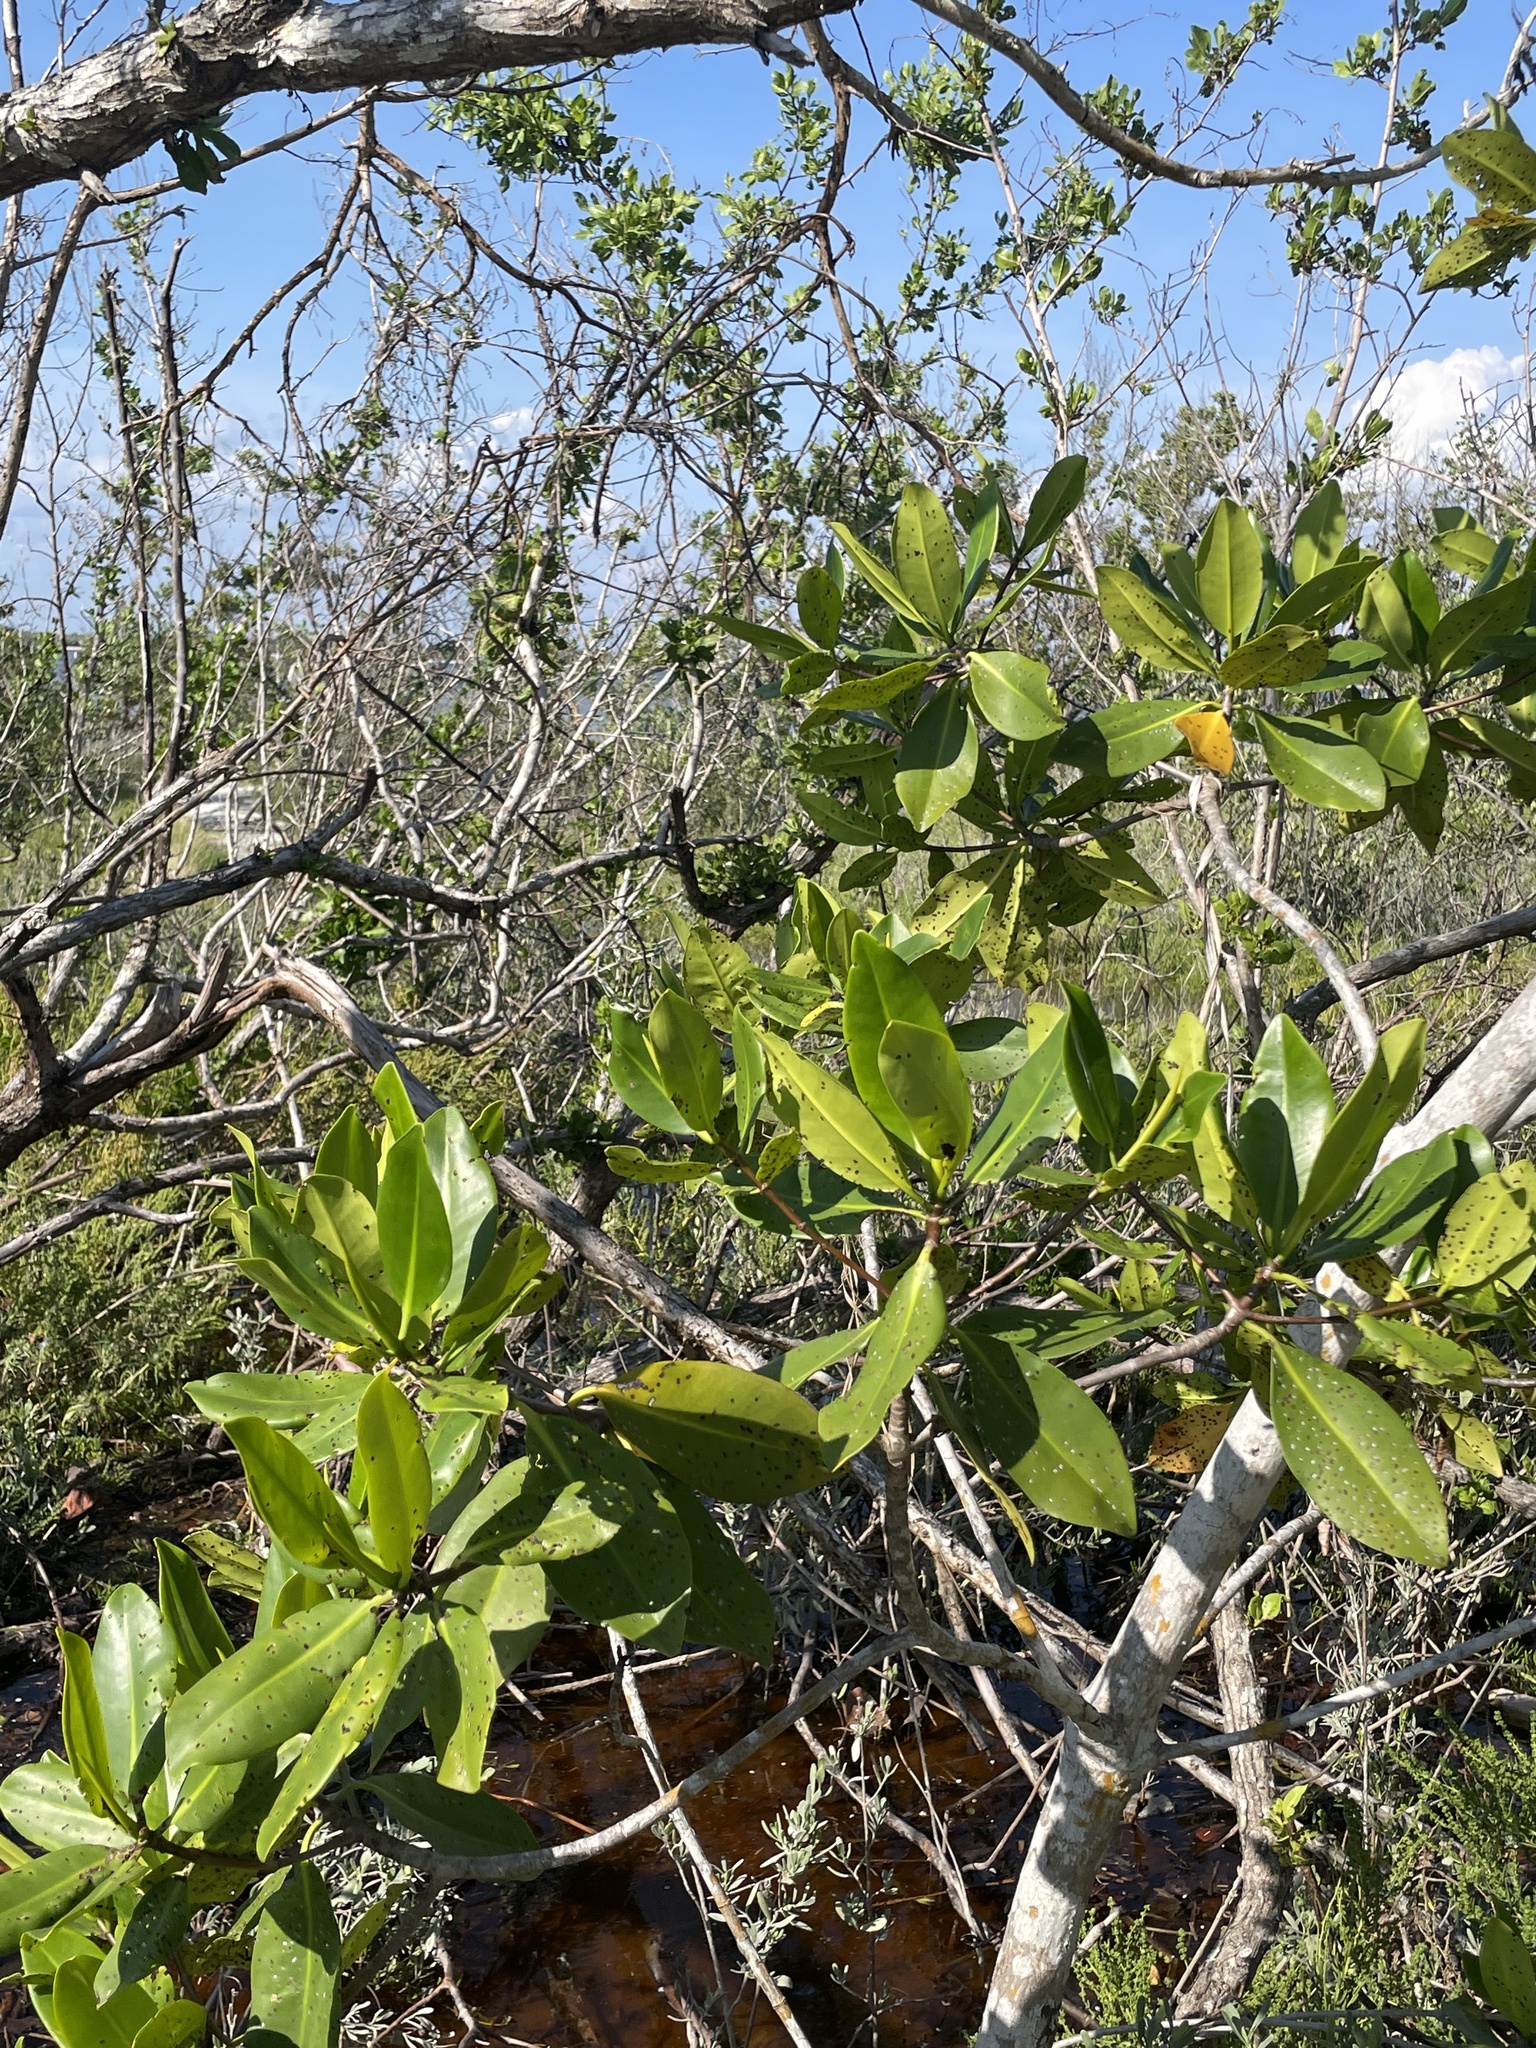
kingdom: Plantae
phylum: Tracheophyta
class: Magnoliopsida
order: Malpighiales
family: Rhizophoraceae
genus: Rhizophora
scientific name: Rhizophora mangle
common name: Red mangrove
